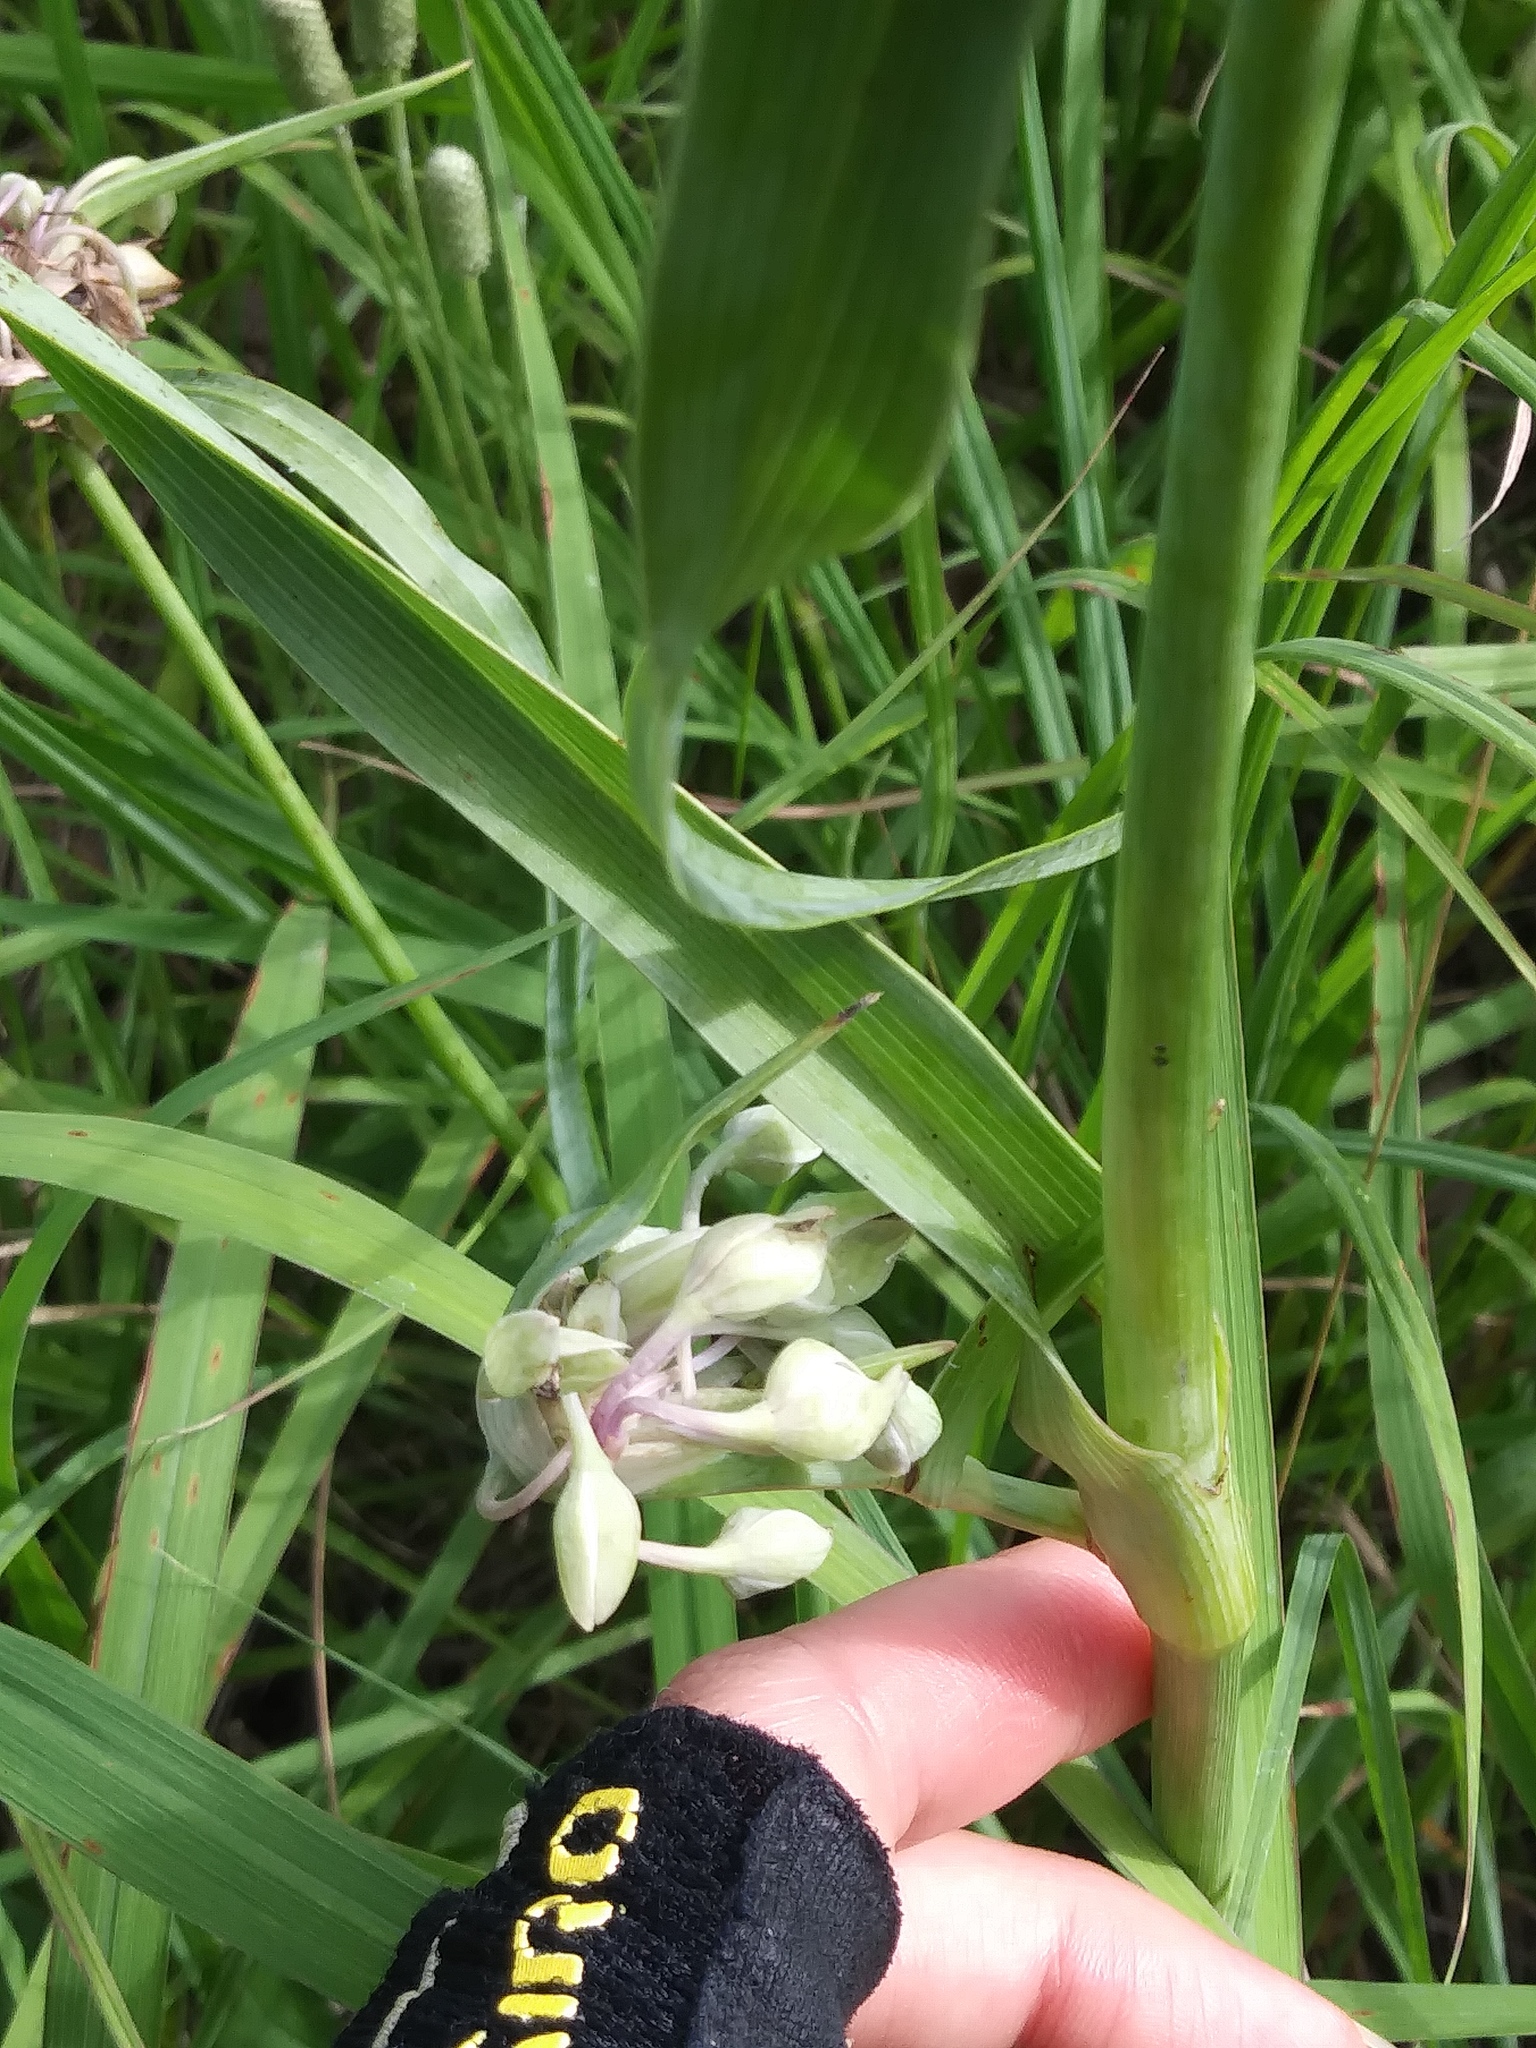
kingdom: Plantae
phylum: Tracheophyta
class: Liliopsida
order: Commelinales
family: Commelinaceae
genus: Tradescantia
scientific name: Tradescantia ohiensis
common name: Ohio spiderwort
